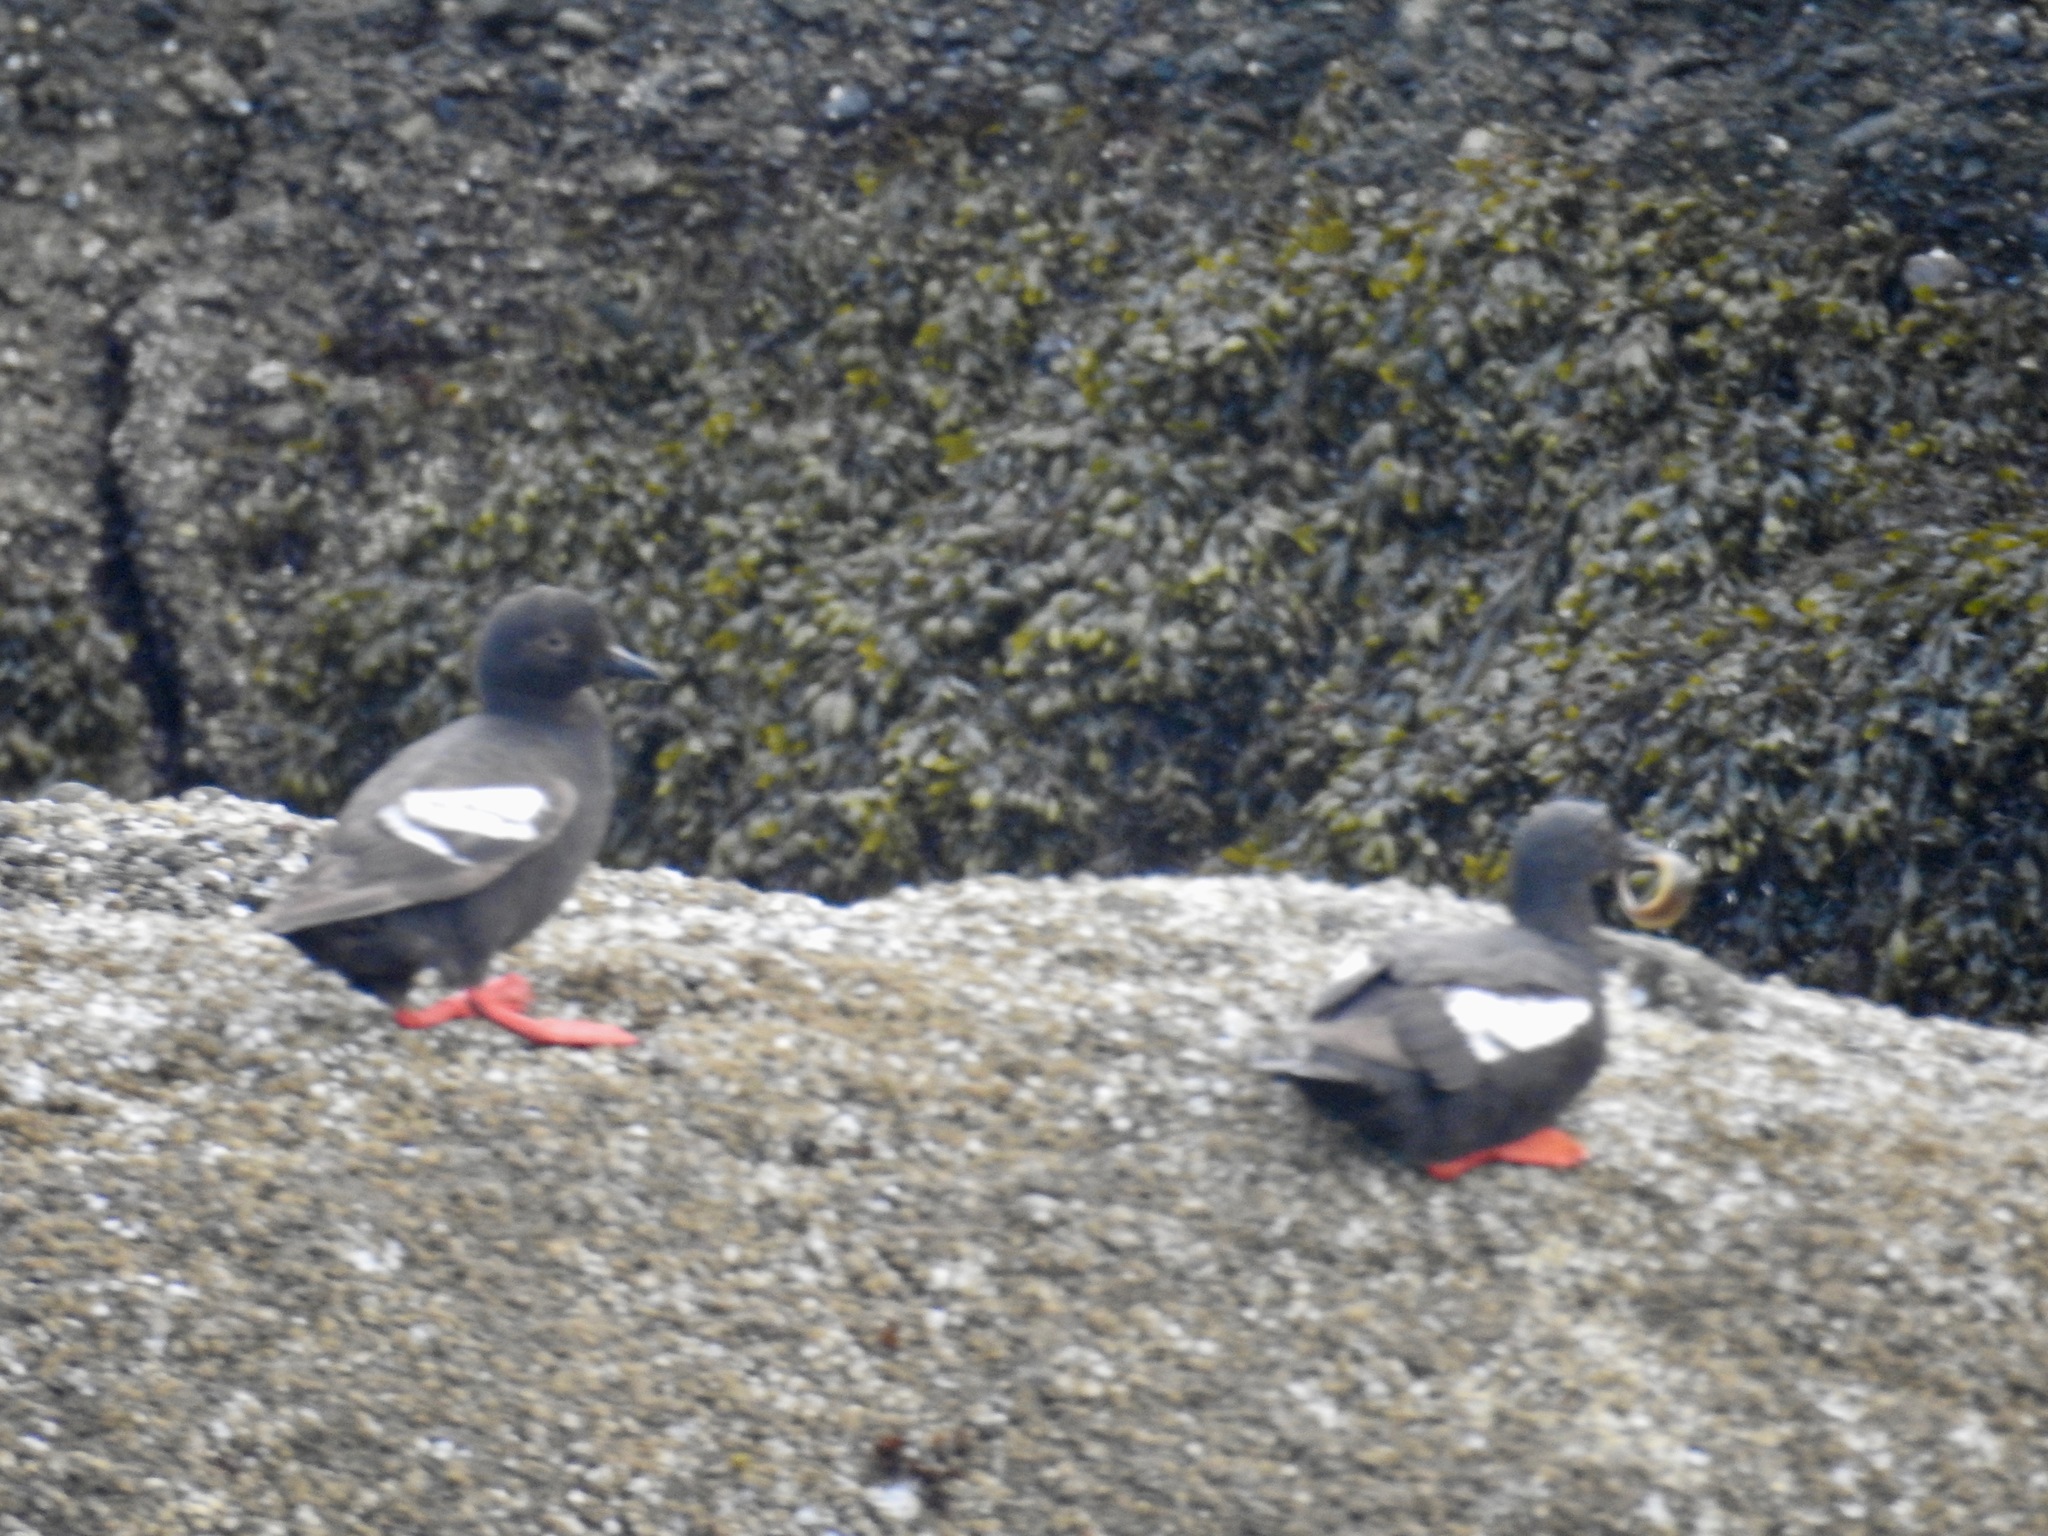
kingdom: Animalia
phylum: Chordata
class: Aves
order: Charadriiformes
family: Alcidae
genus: Cepphus
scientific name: Cepphus columba
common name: Pigeon guillemot
